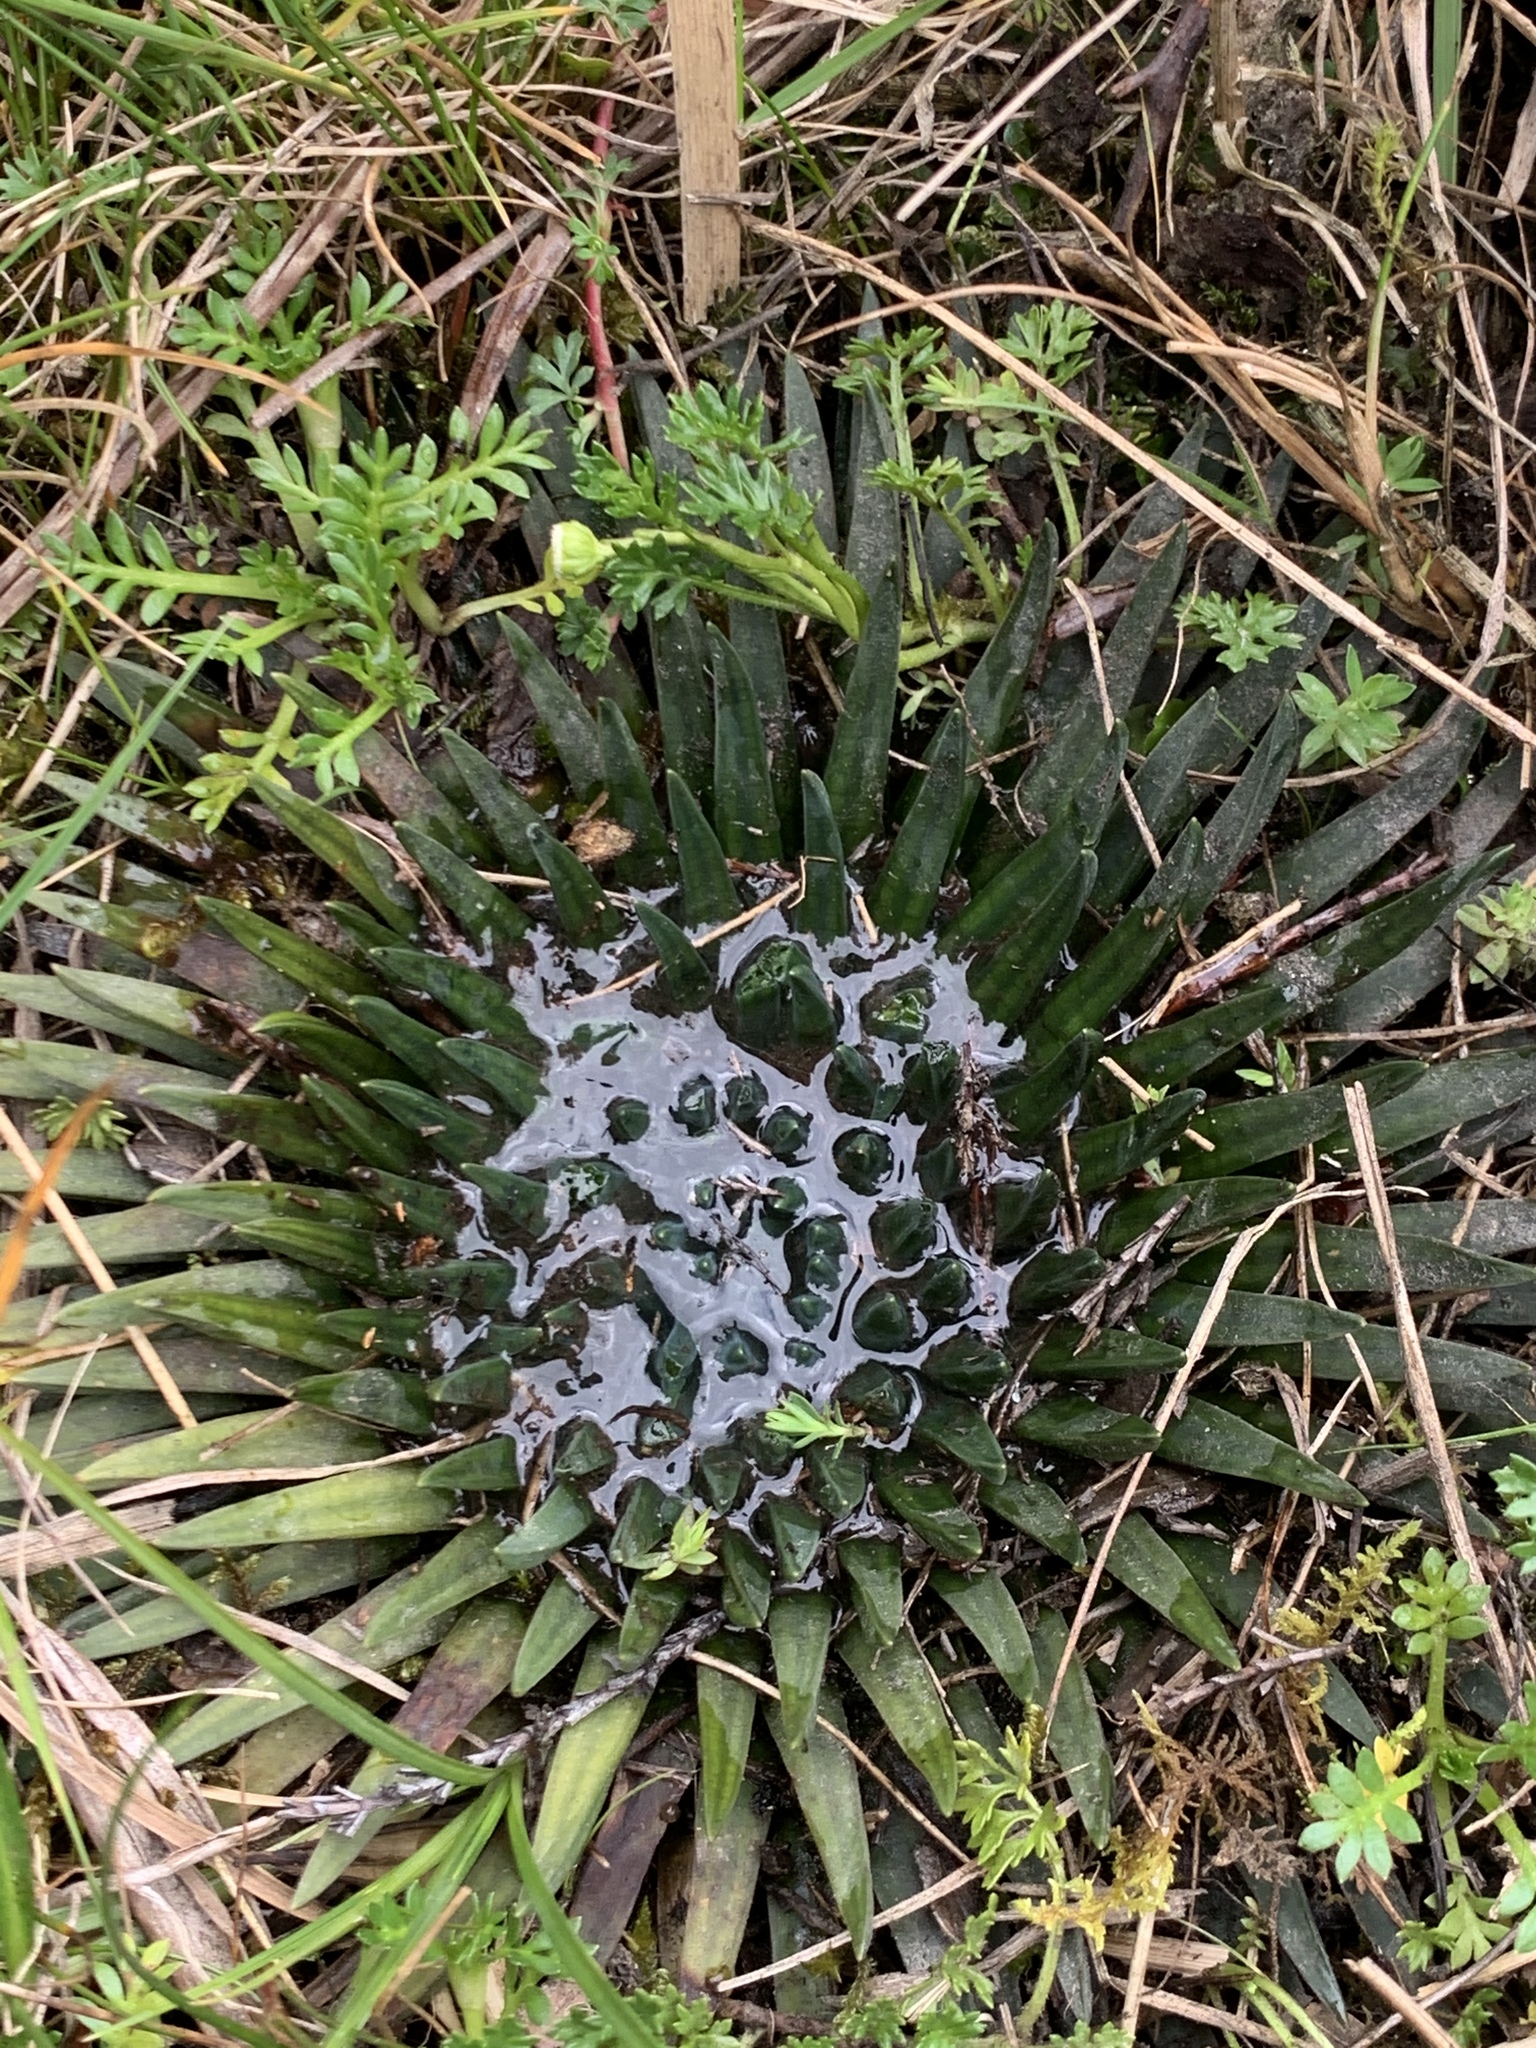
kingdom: Plantae
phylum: Tracheophyta
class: Lycopodiopsida
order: Isoetales
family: Isoetaceae
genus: Isoetes
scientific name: Isoetes novogranadensis
